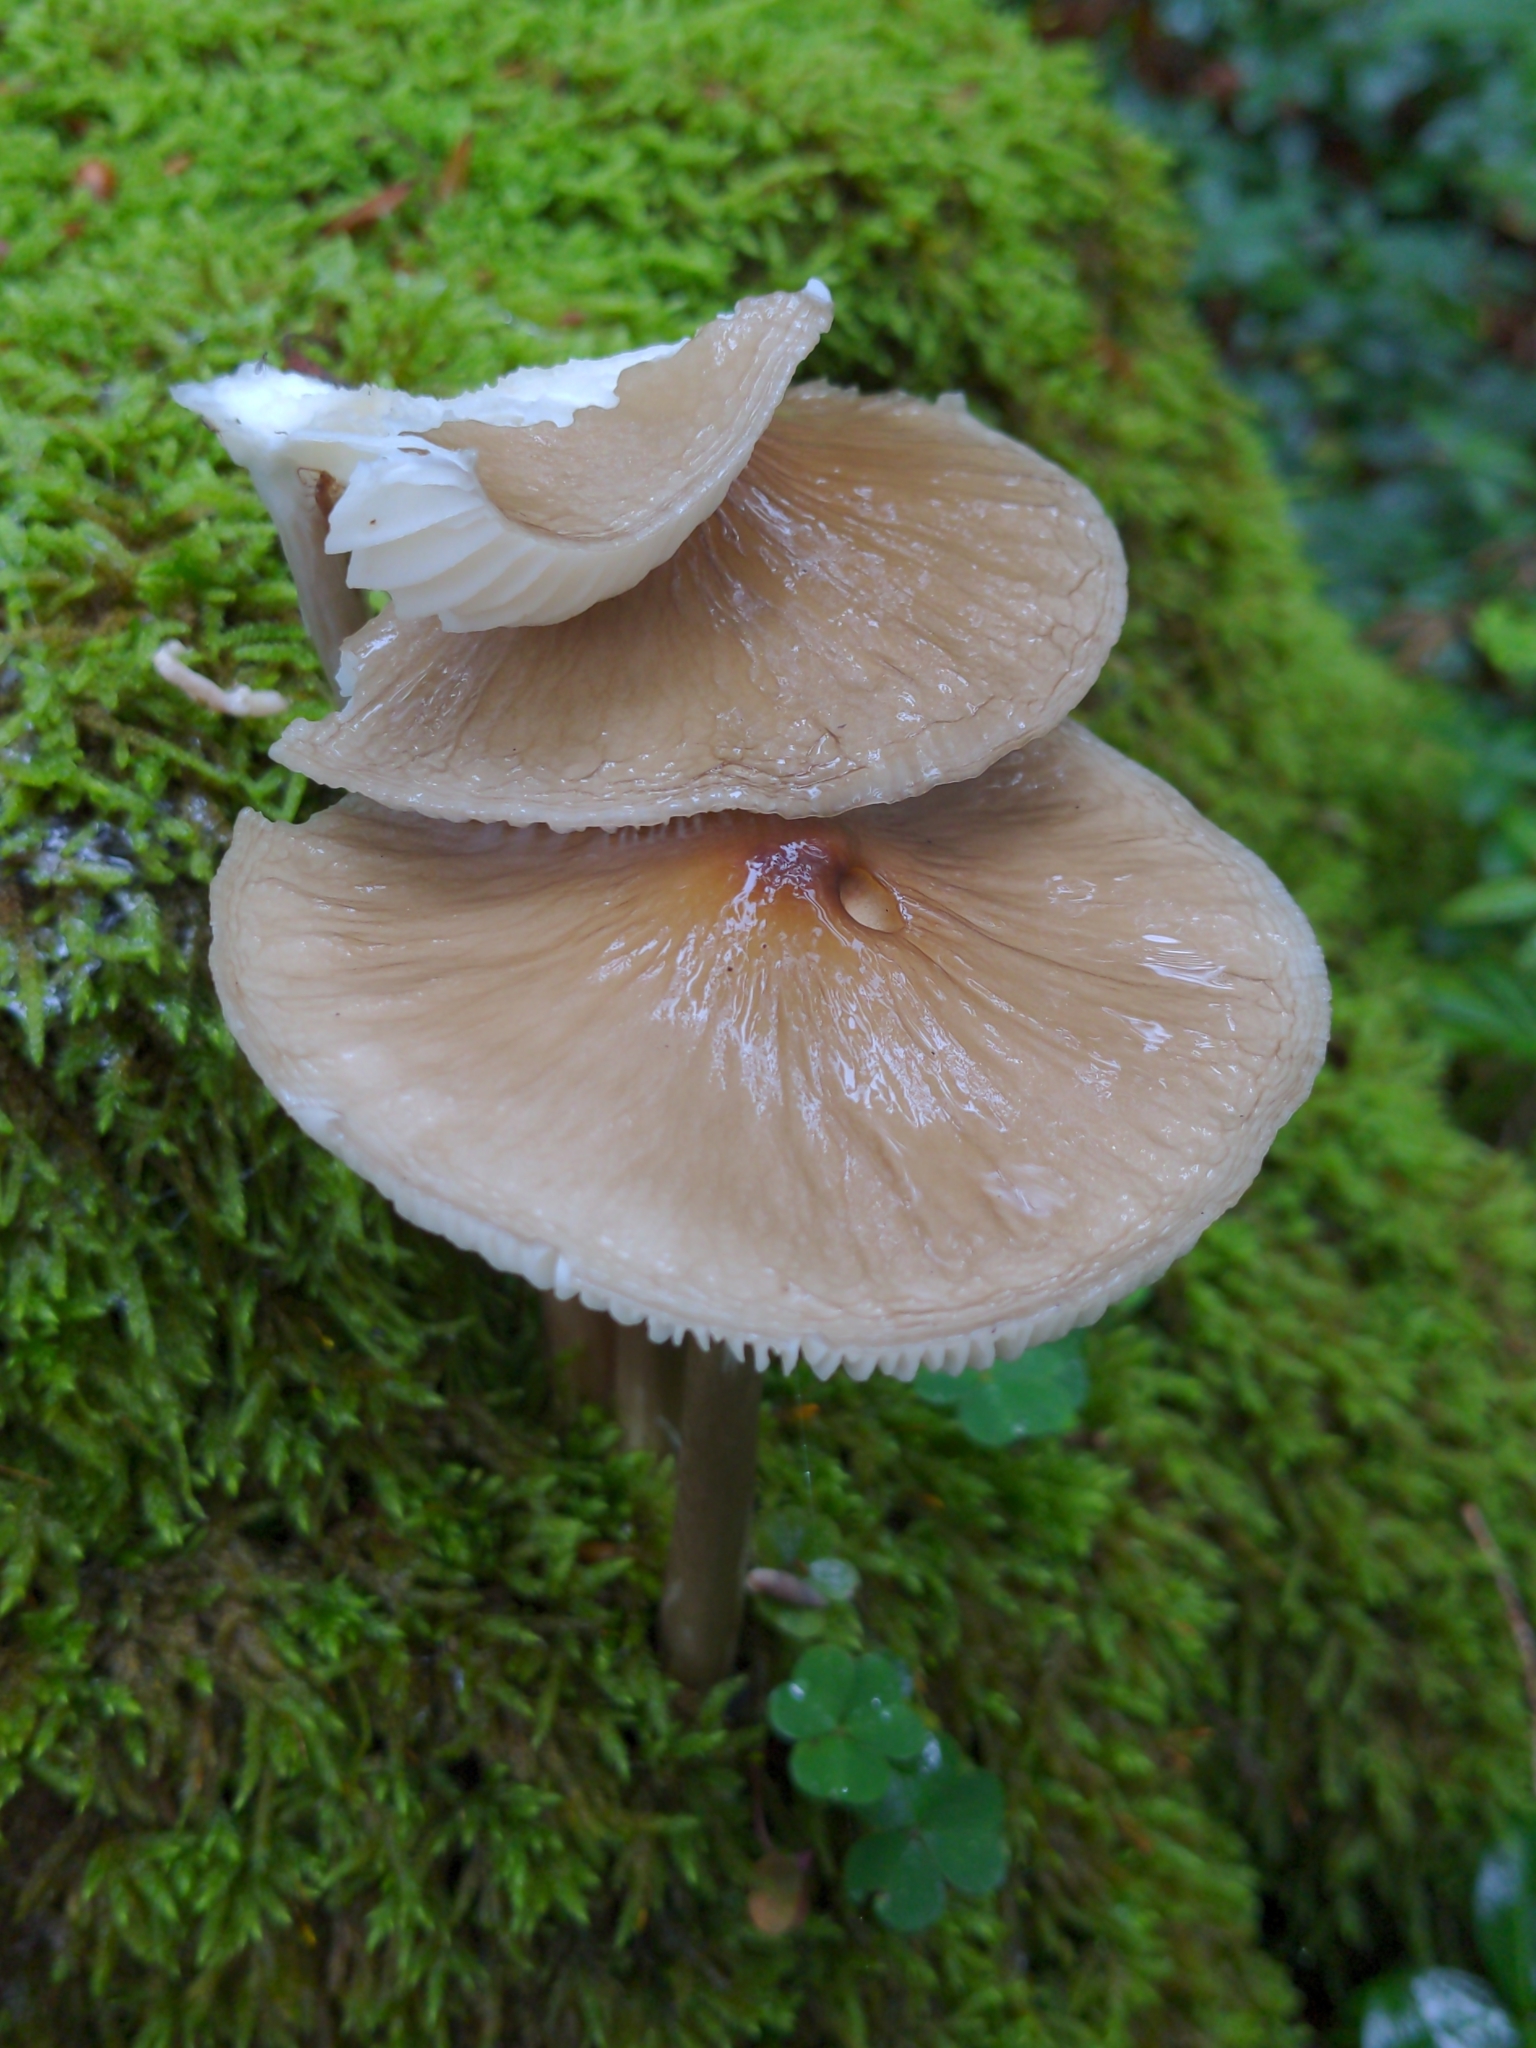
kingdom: Fungi
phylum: Basidiomycota
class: Agaricomycetes
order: Agaricales
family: Physalacriaceae
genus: Hymenopellis
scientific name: Hymenopellis radicata
